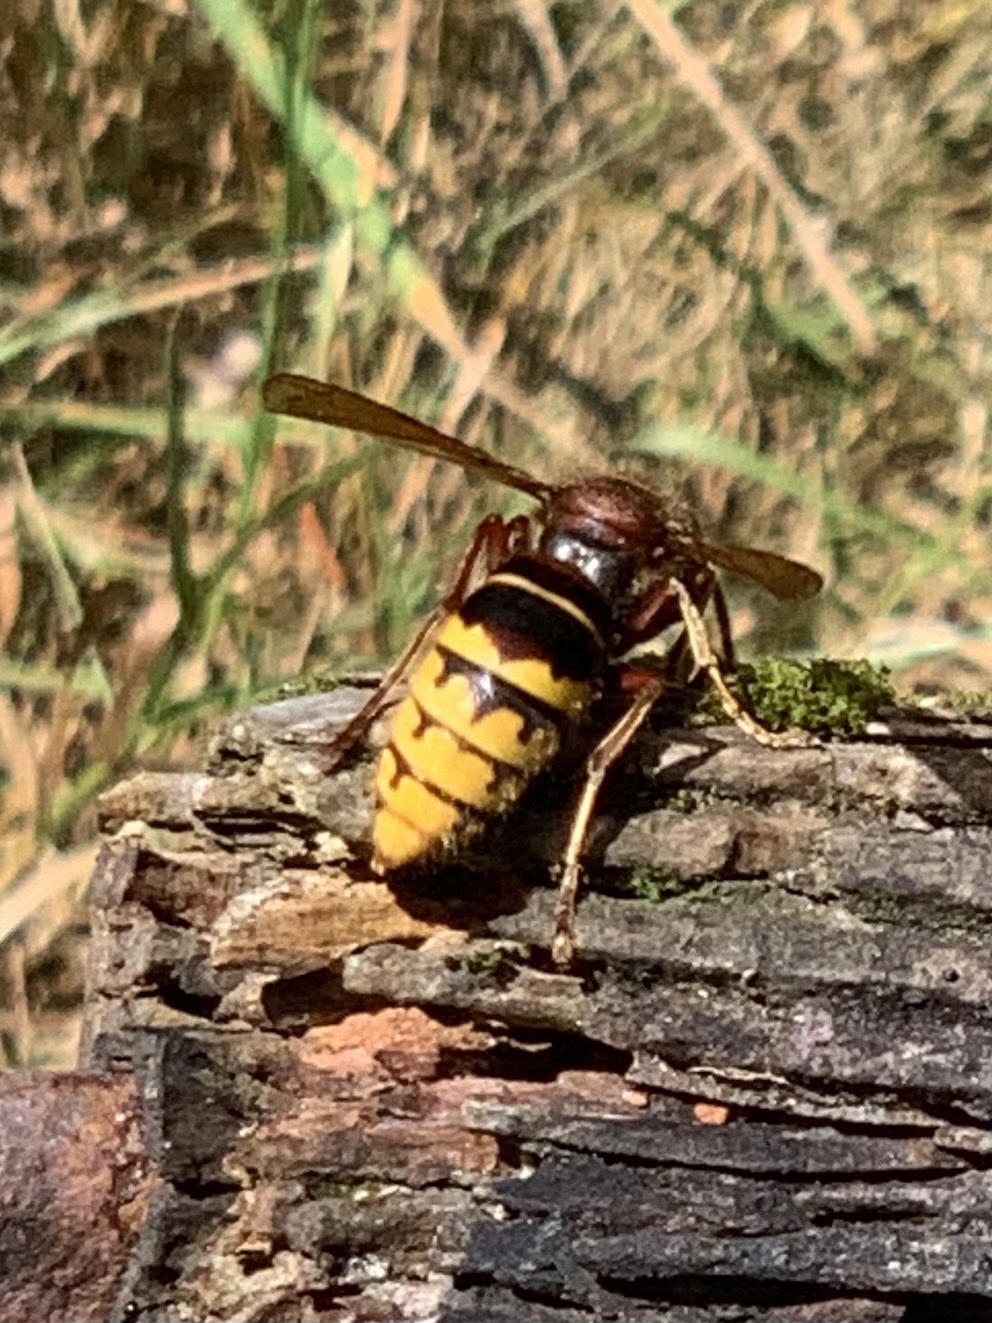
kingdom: Animalia
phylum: Arthropoda
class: Insecta
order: Hymenoptera
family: Vespidae
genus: Vespa
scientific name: Vespa crabro
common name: Hornet
